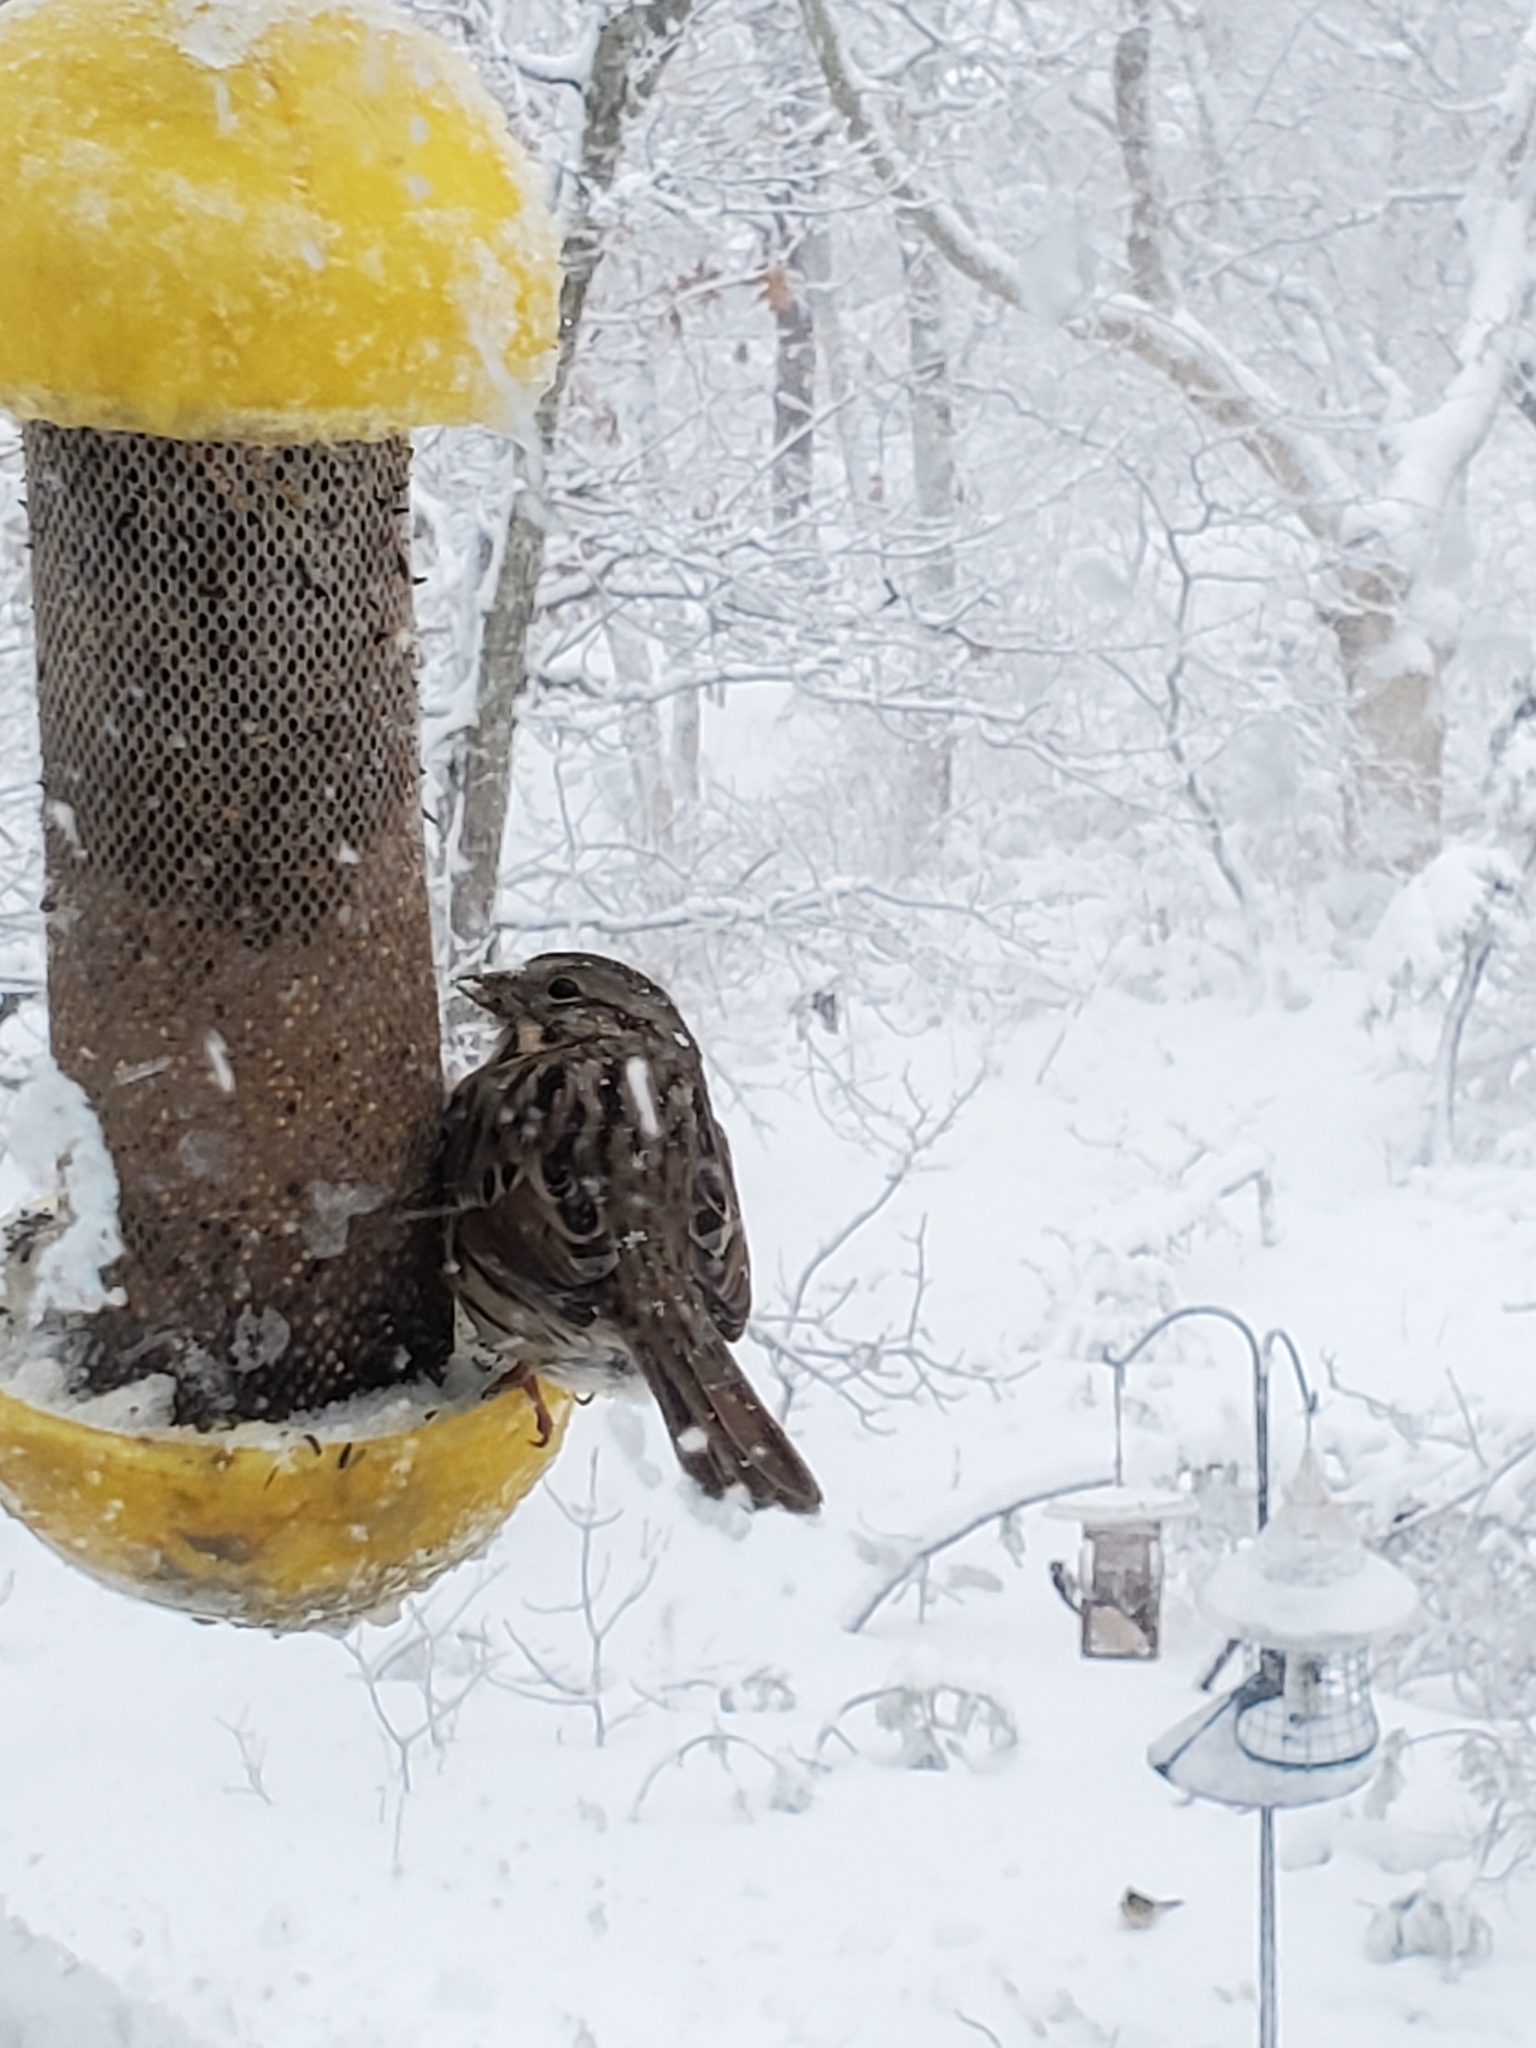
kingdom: Animalia
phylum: Chordata
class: Aves
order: Passeriformes
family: Passerellidae
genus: Melospiza
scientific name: Melospiza melodia
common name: Song sparrow
